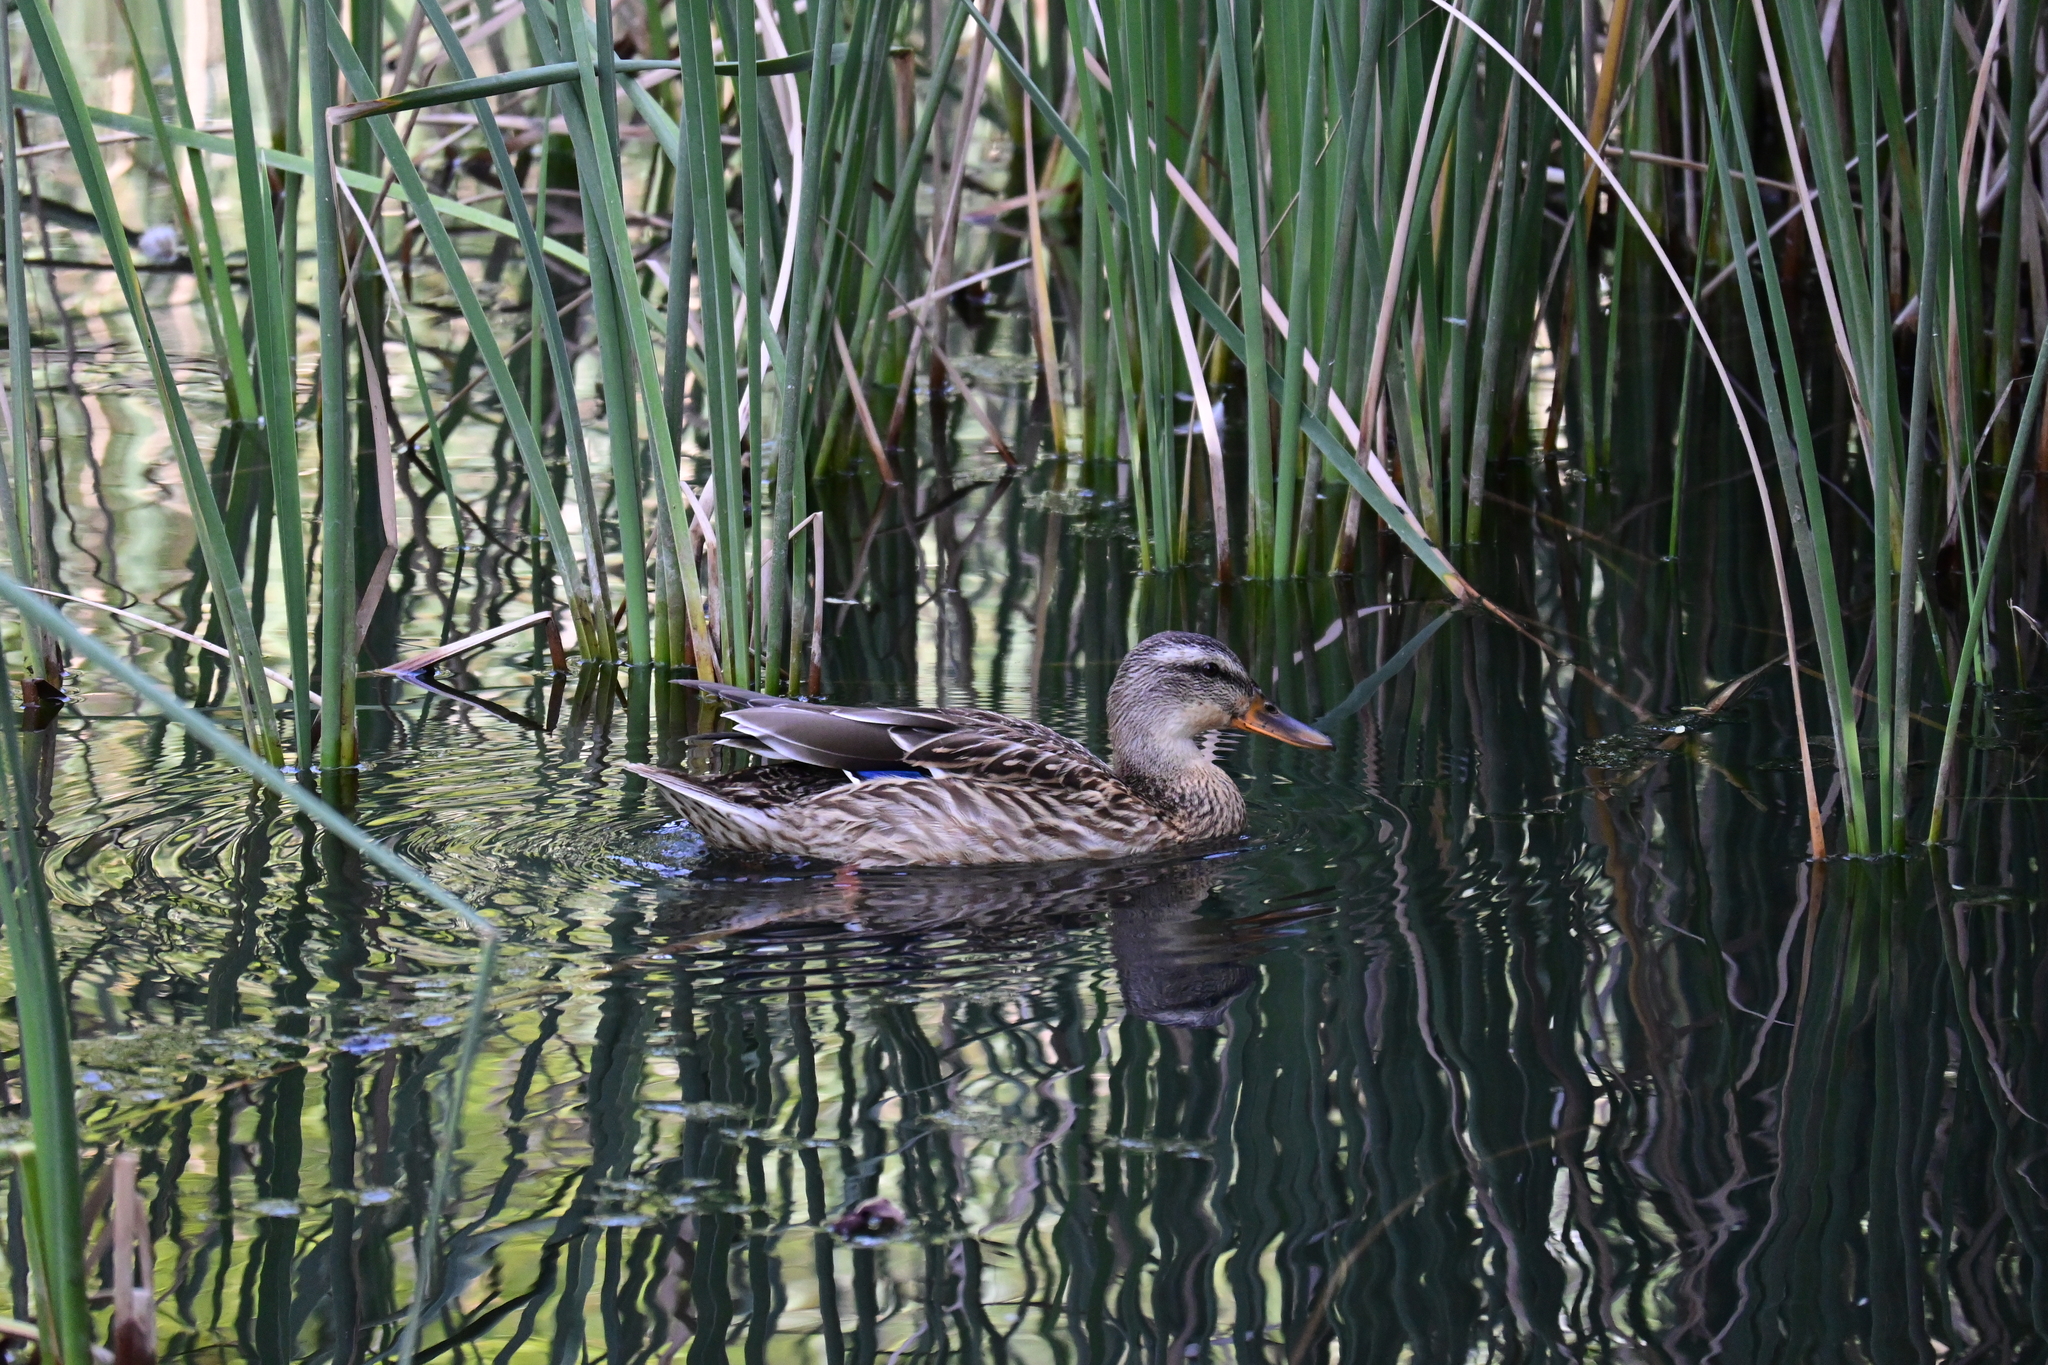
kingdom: Animalia
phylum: Chordata
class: Aves
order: Anseriformes
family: Anatidae
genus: Anas
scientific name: Anas platyrhynchos
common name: Mallard
